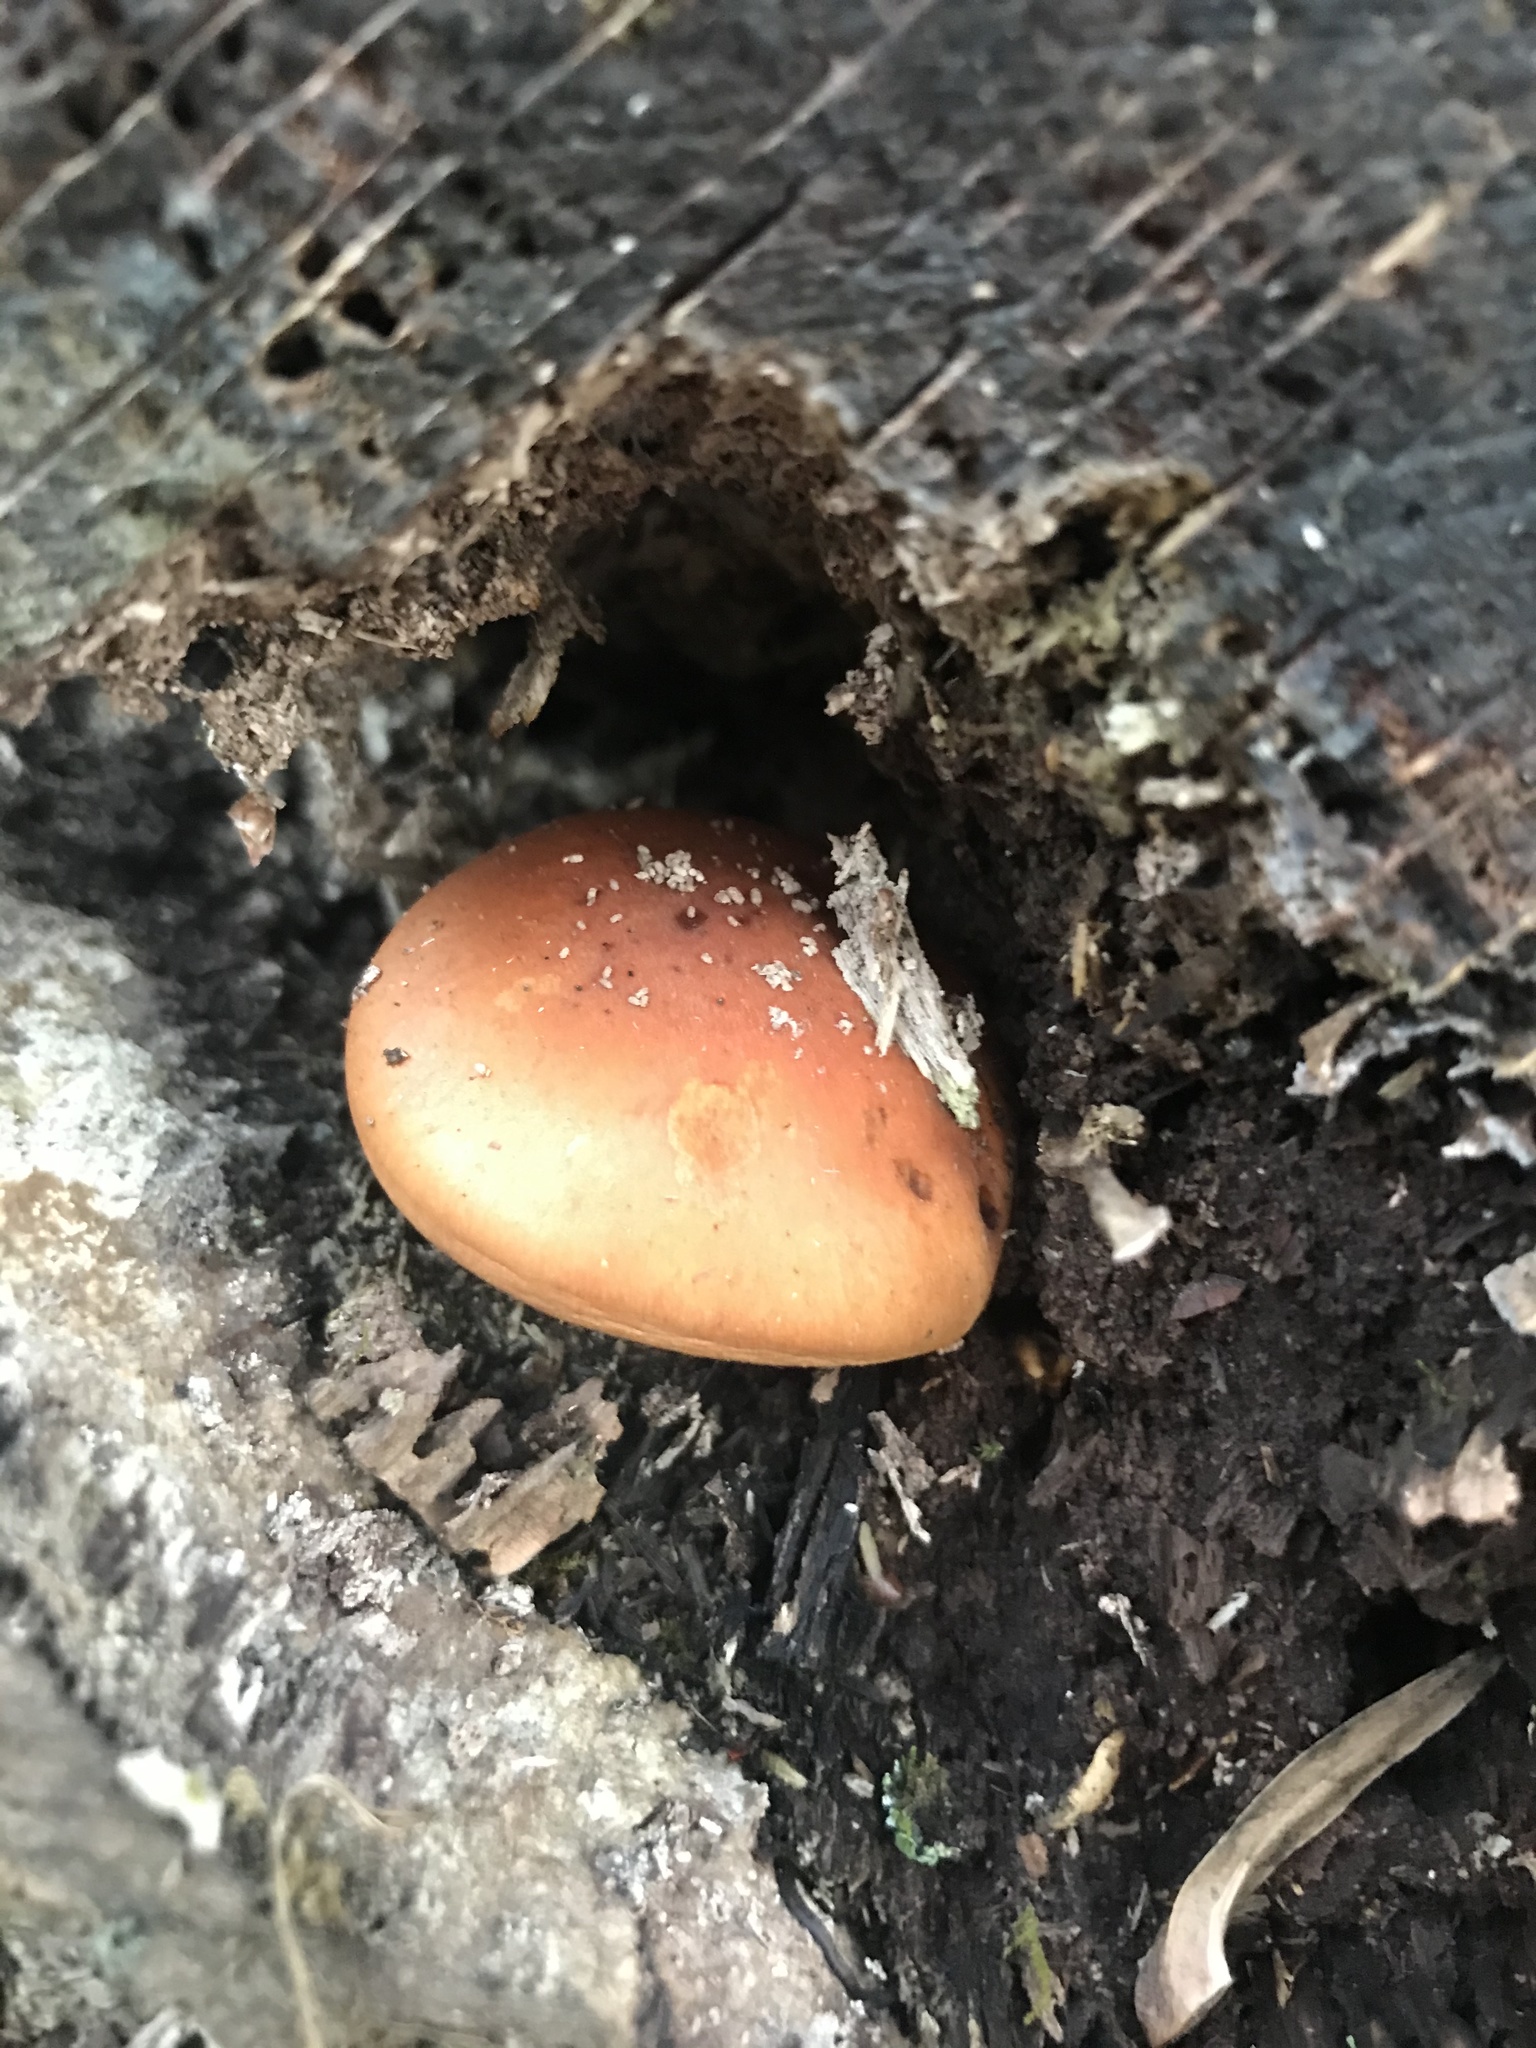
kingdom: Fungi
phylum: Basidiomycota
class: Agaricomycetes
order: Agaricales
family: Strophariaceae
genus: Hypholoma
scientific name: Hypholoma lateritium
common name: Brick caps
